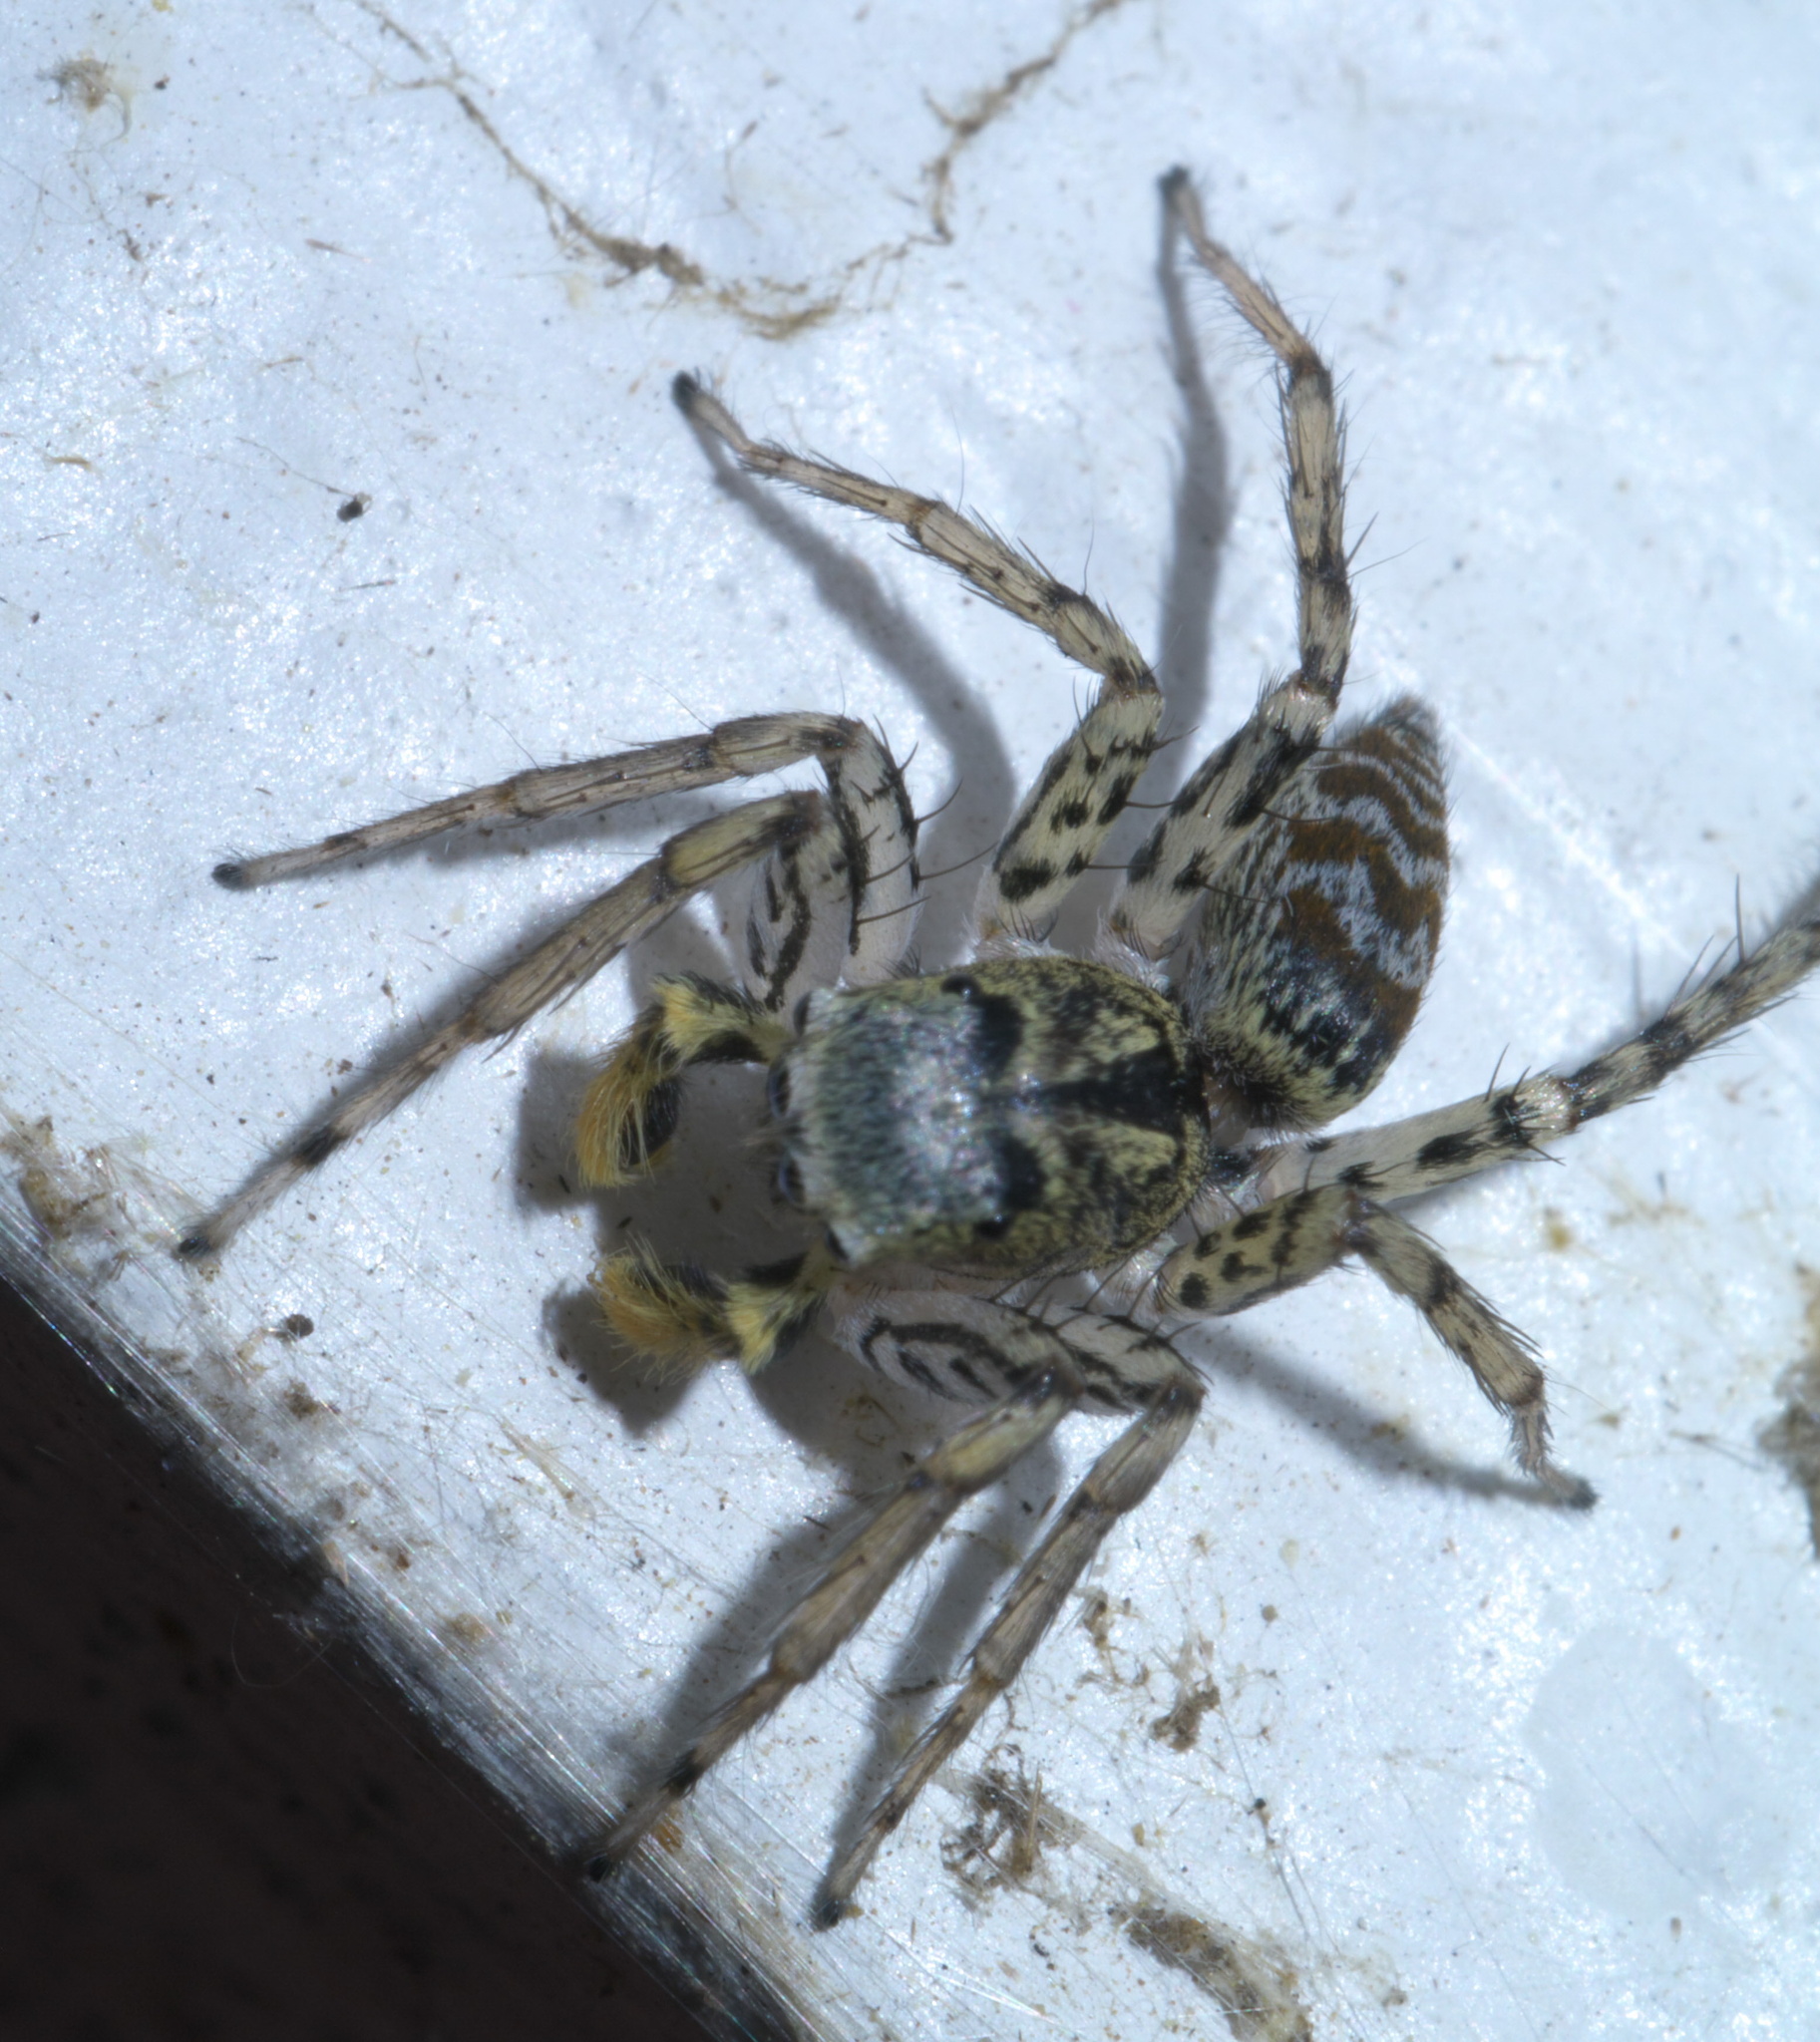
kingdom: Animalia
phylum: Arthropoda
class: Arachnida
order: Araneae
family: Salticidae
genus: Maevia
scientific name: Maevia inclemens
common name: Dimorphic jumper
